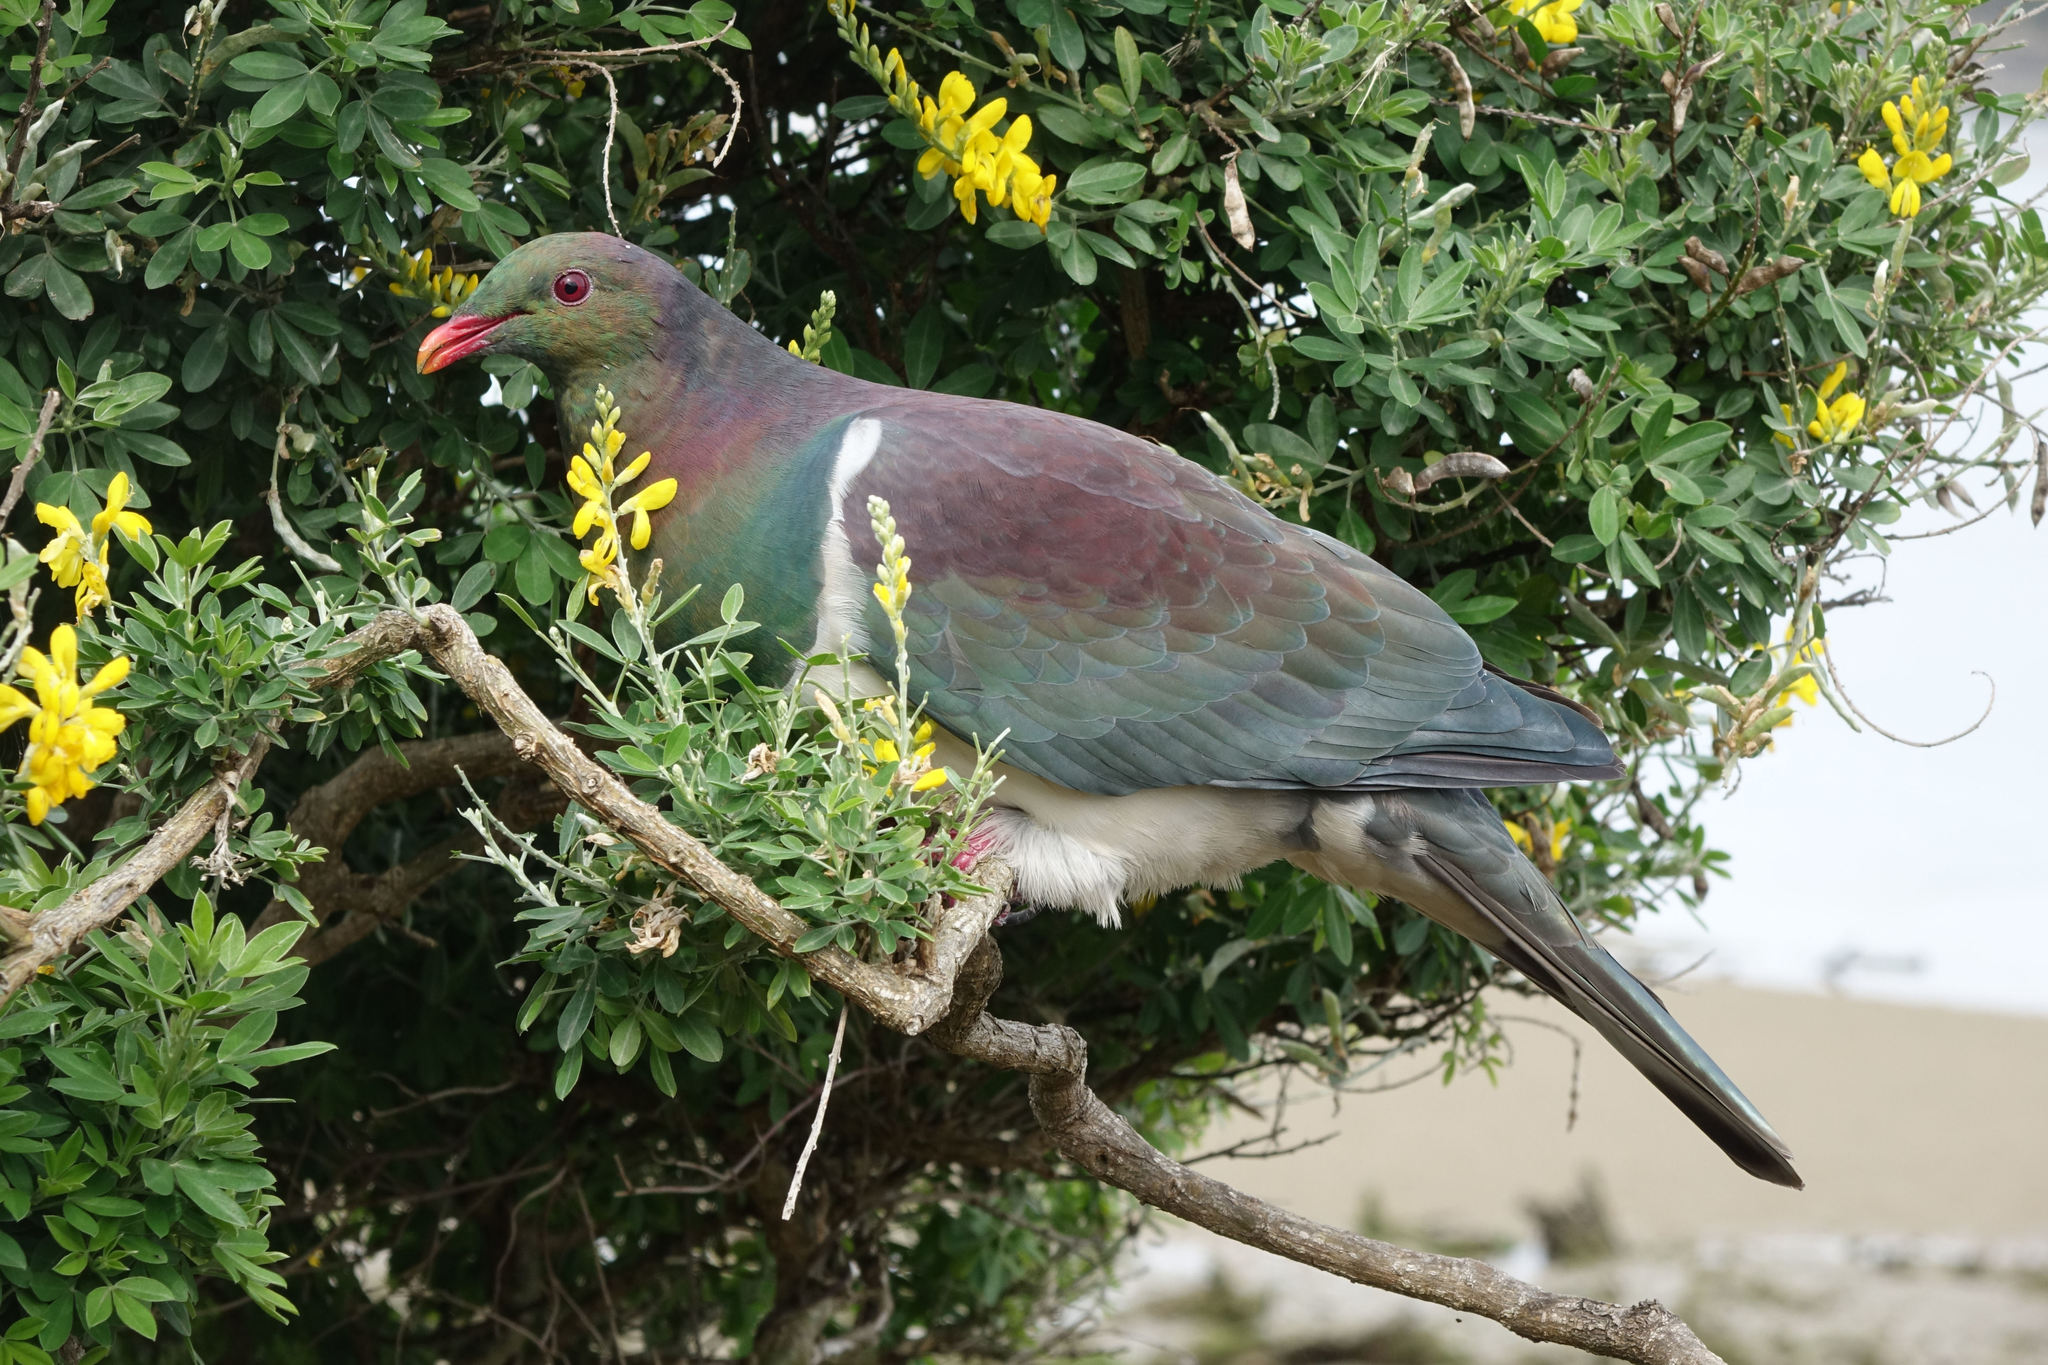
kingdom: Animalia
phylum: Chordata
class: Aves
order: Columbiformes
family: Columbidae
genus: Hemiphaga
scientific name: Hemiphaga novaeseelandiae
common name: New zealand pigeon
